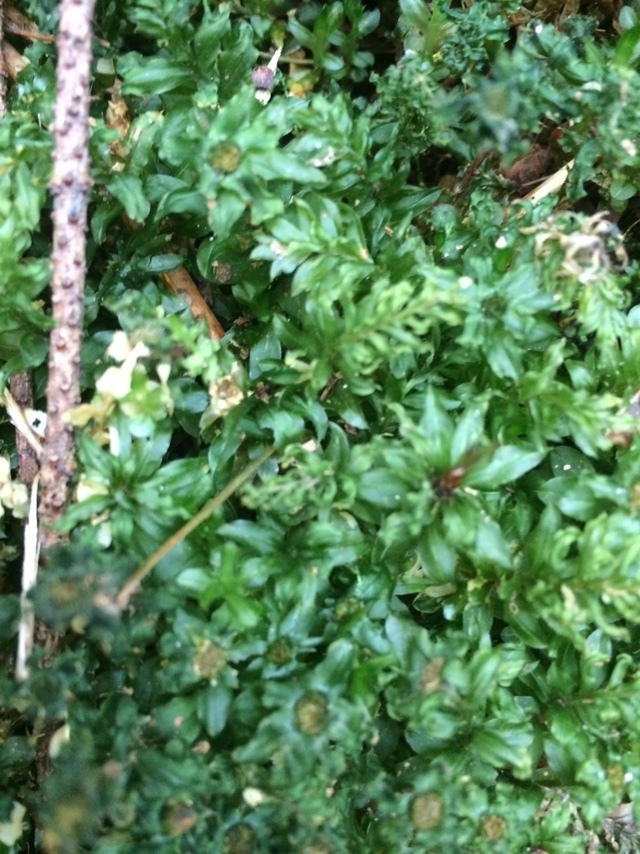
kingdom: Plantae
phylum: Bryophyta
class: Bryopsida
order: Bryales
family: Mniaceae
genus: Plagiomnium
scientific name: Plagiomnium insigne
